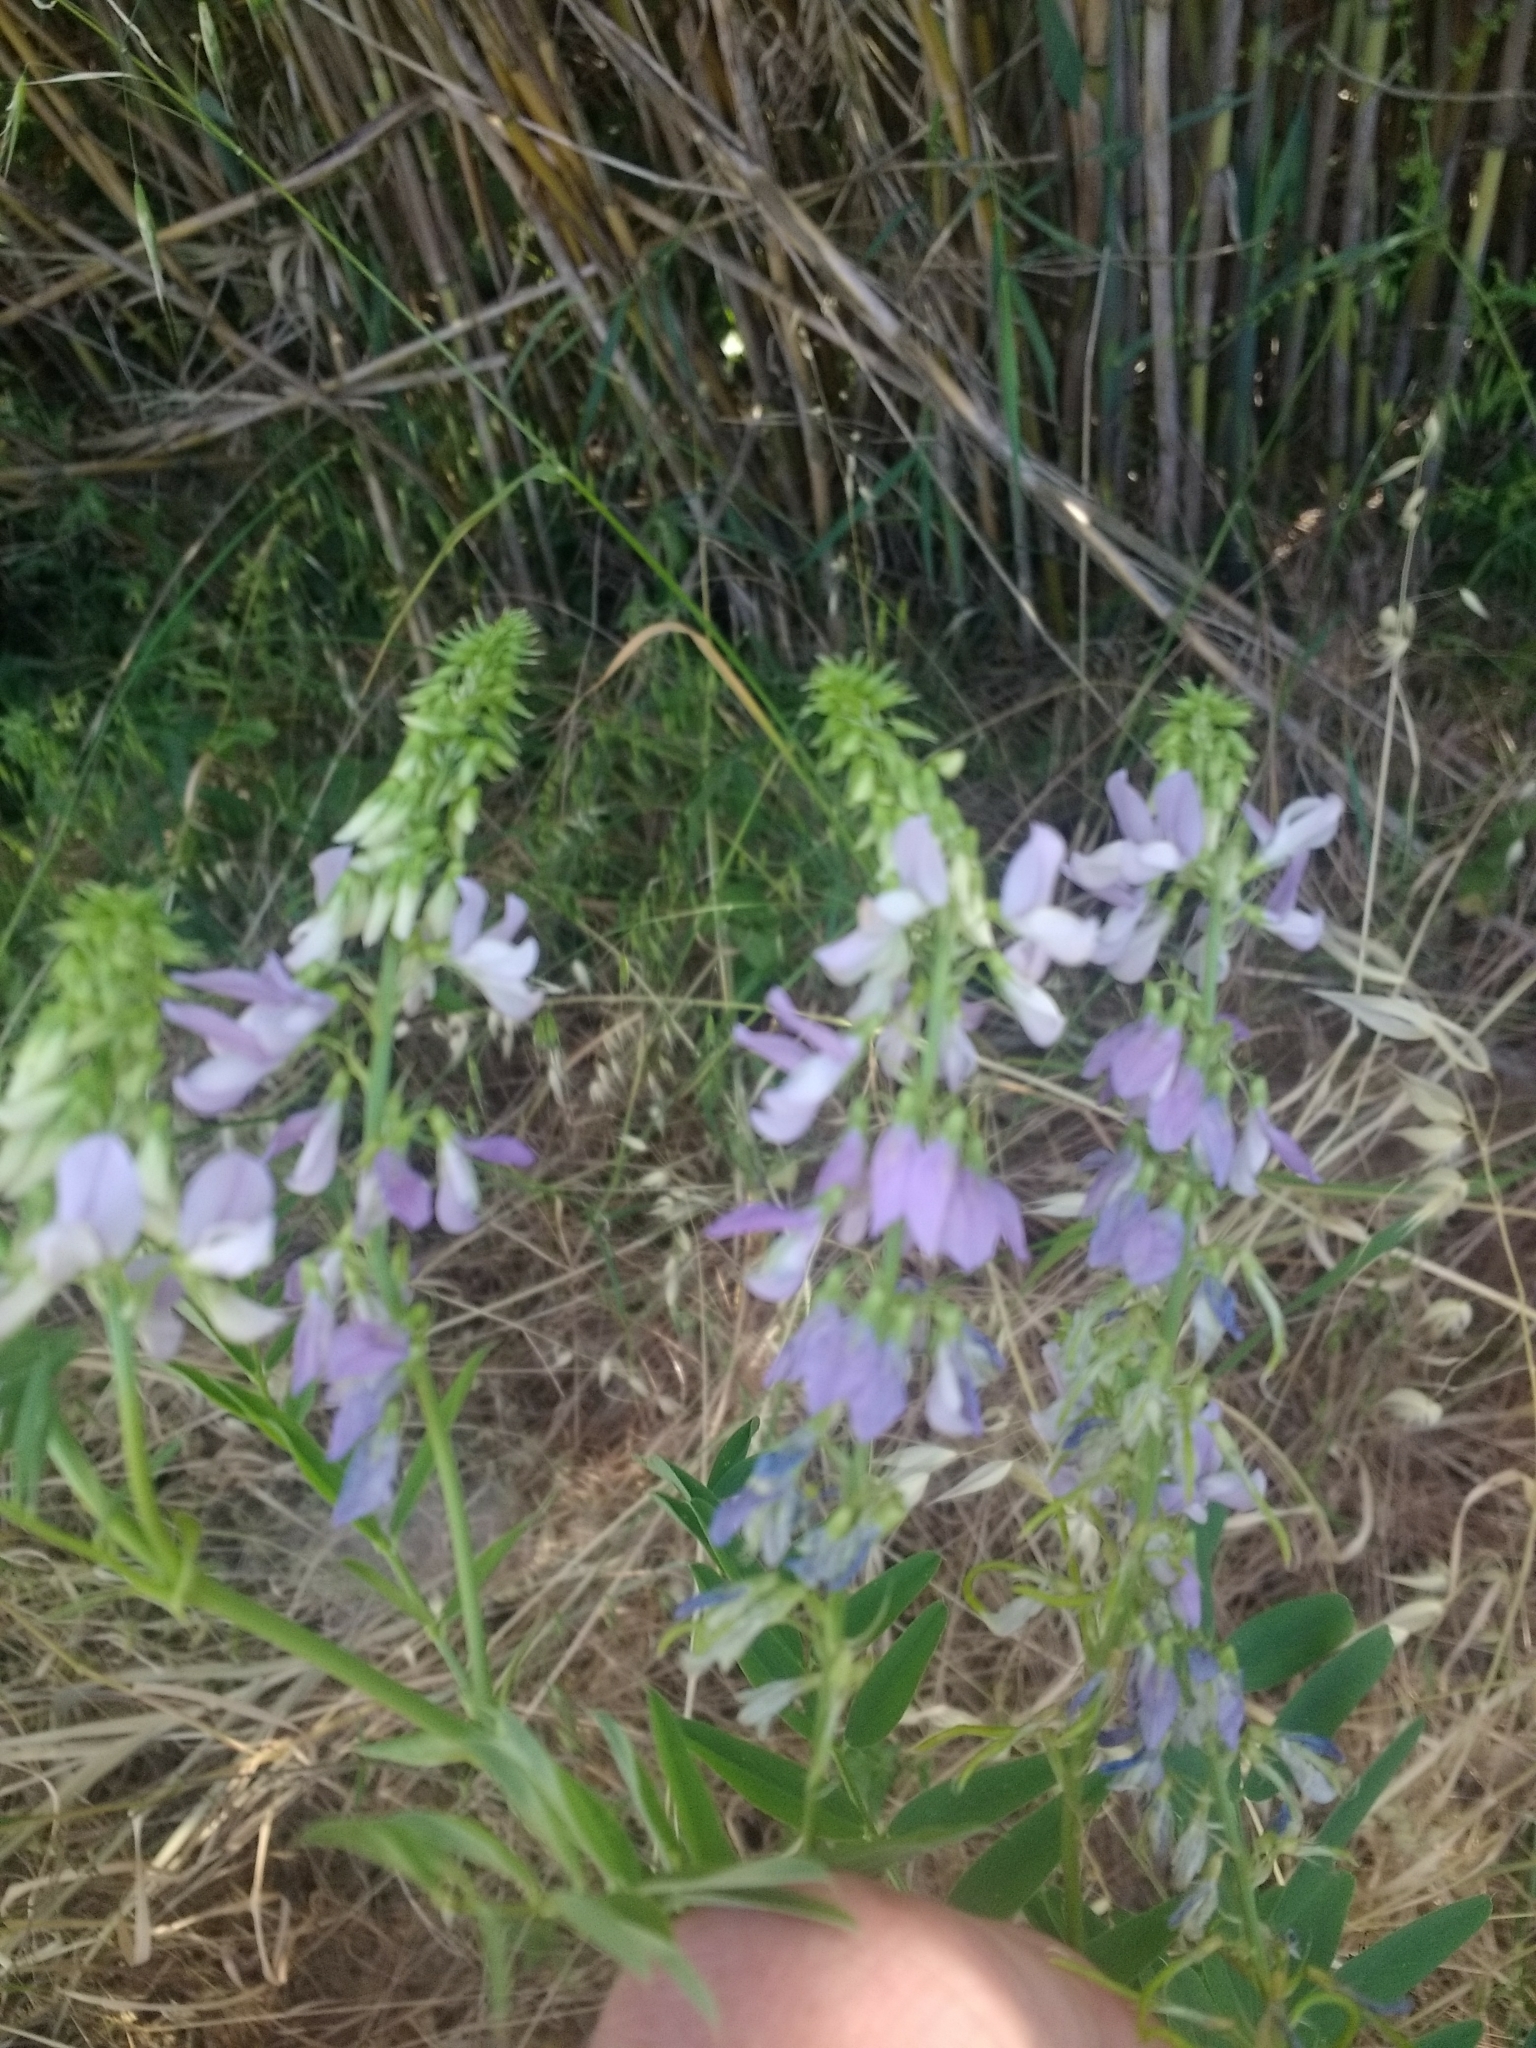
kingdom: Plantae
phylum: Tracheophyta
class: Magnoliopsida
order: Fabales
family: Fabaceae
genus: Galega
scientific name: Galega officinalis
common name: Goat's-rue
